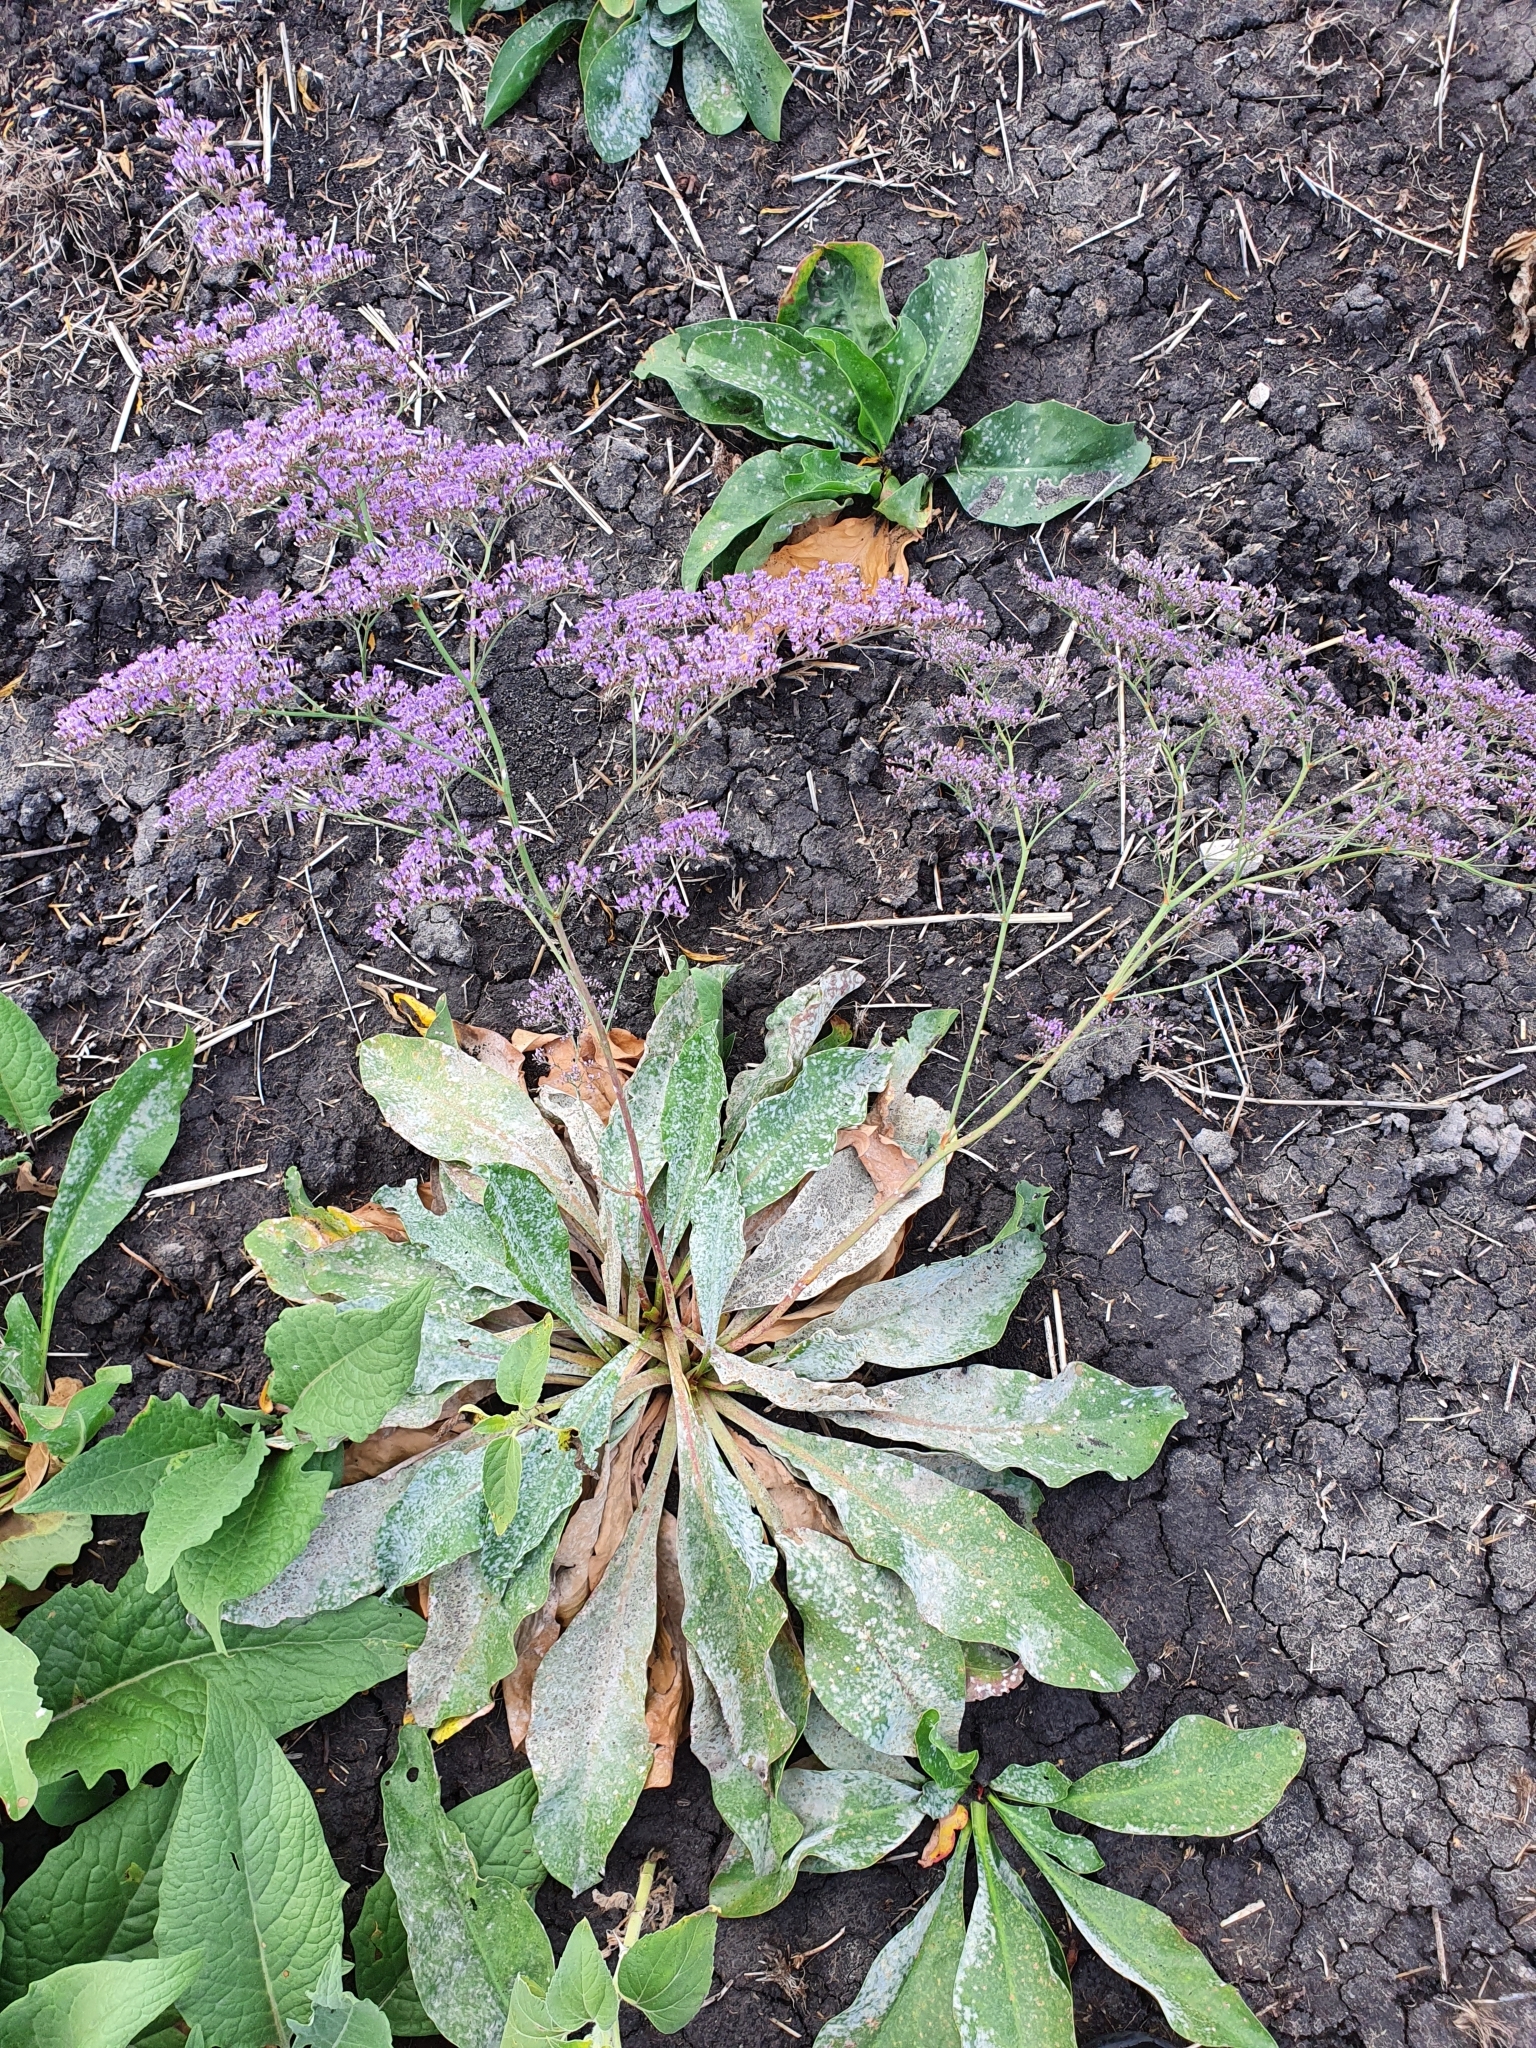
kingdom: Plantae
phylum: Tracheophyta
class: Magnoliopsida
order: Caryophyllales
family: Plumbaginaceae
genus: Limonium
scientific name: Limonium gmelini
